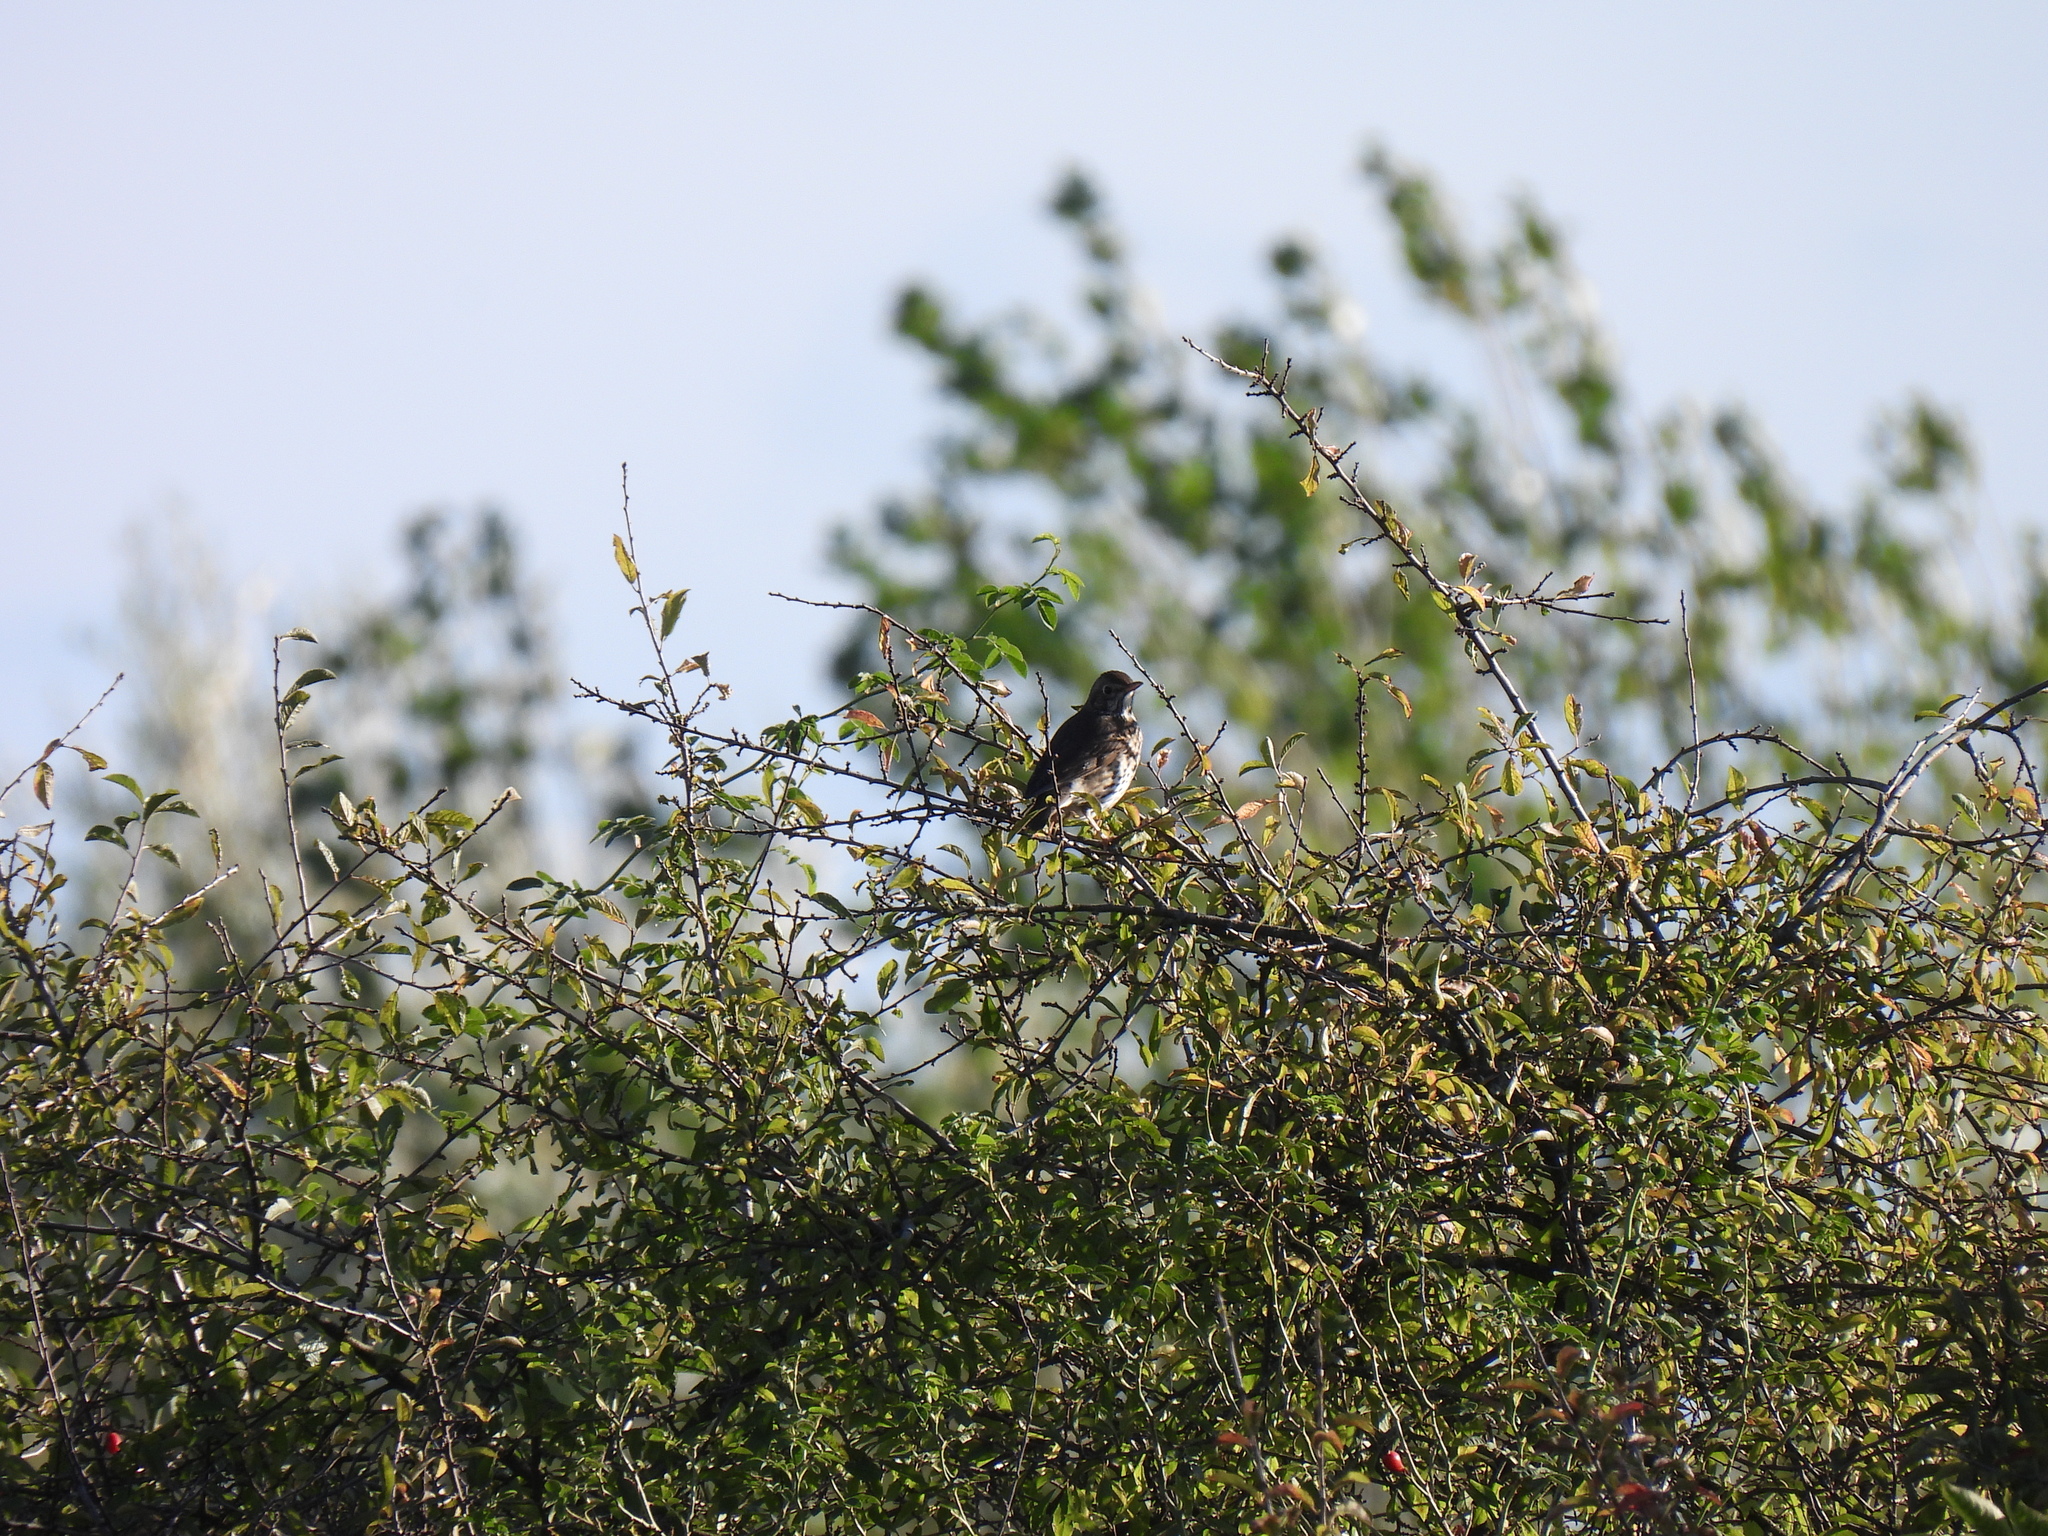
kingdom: Animalia
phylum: Chordata
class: Aves
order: Passeriformes
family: Turdidae
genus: Turdus
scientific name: Turdus philomelos
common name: Song thrush
